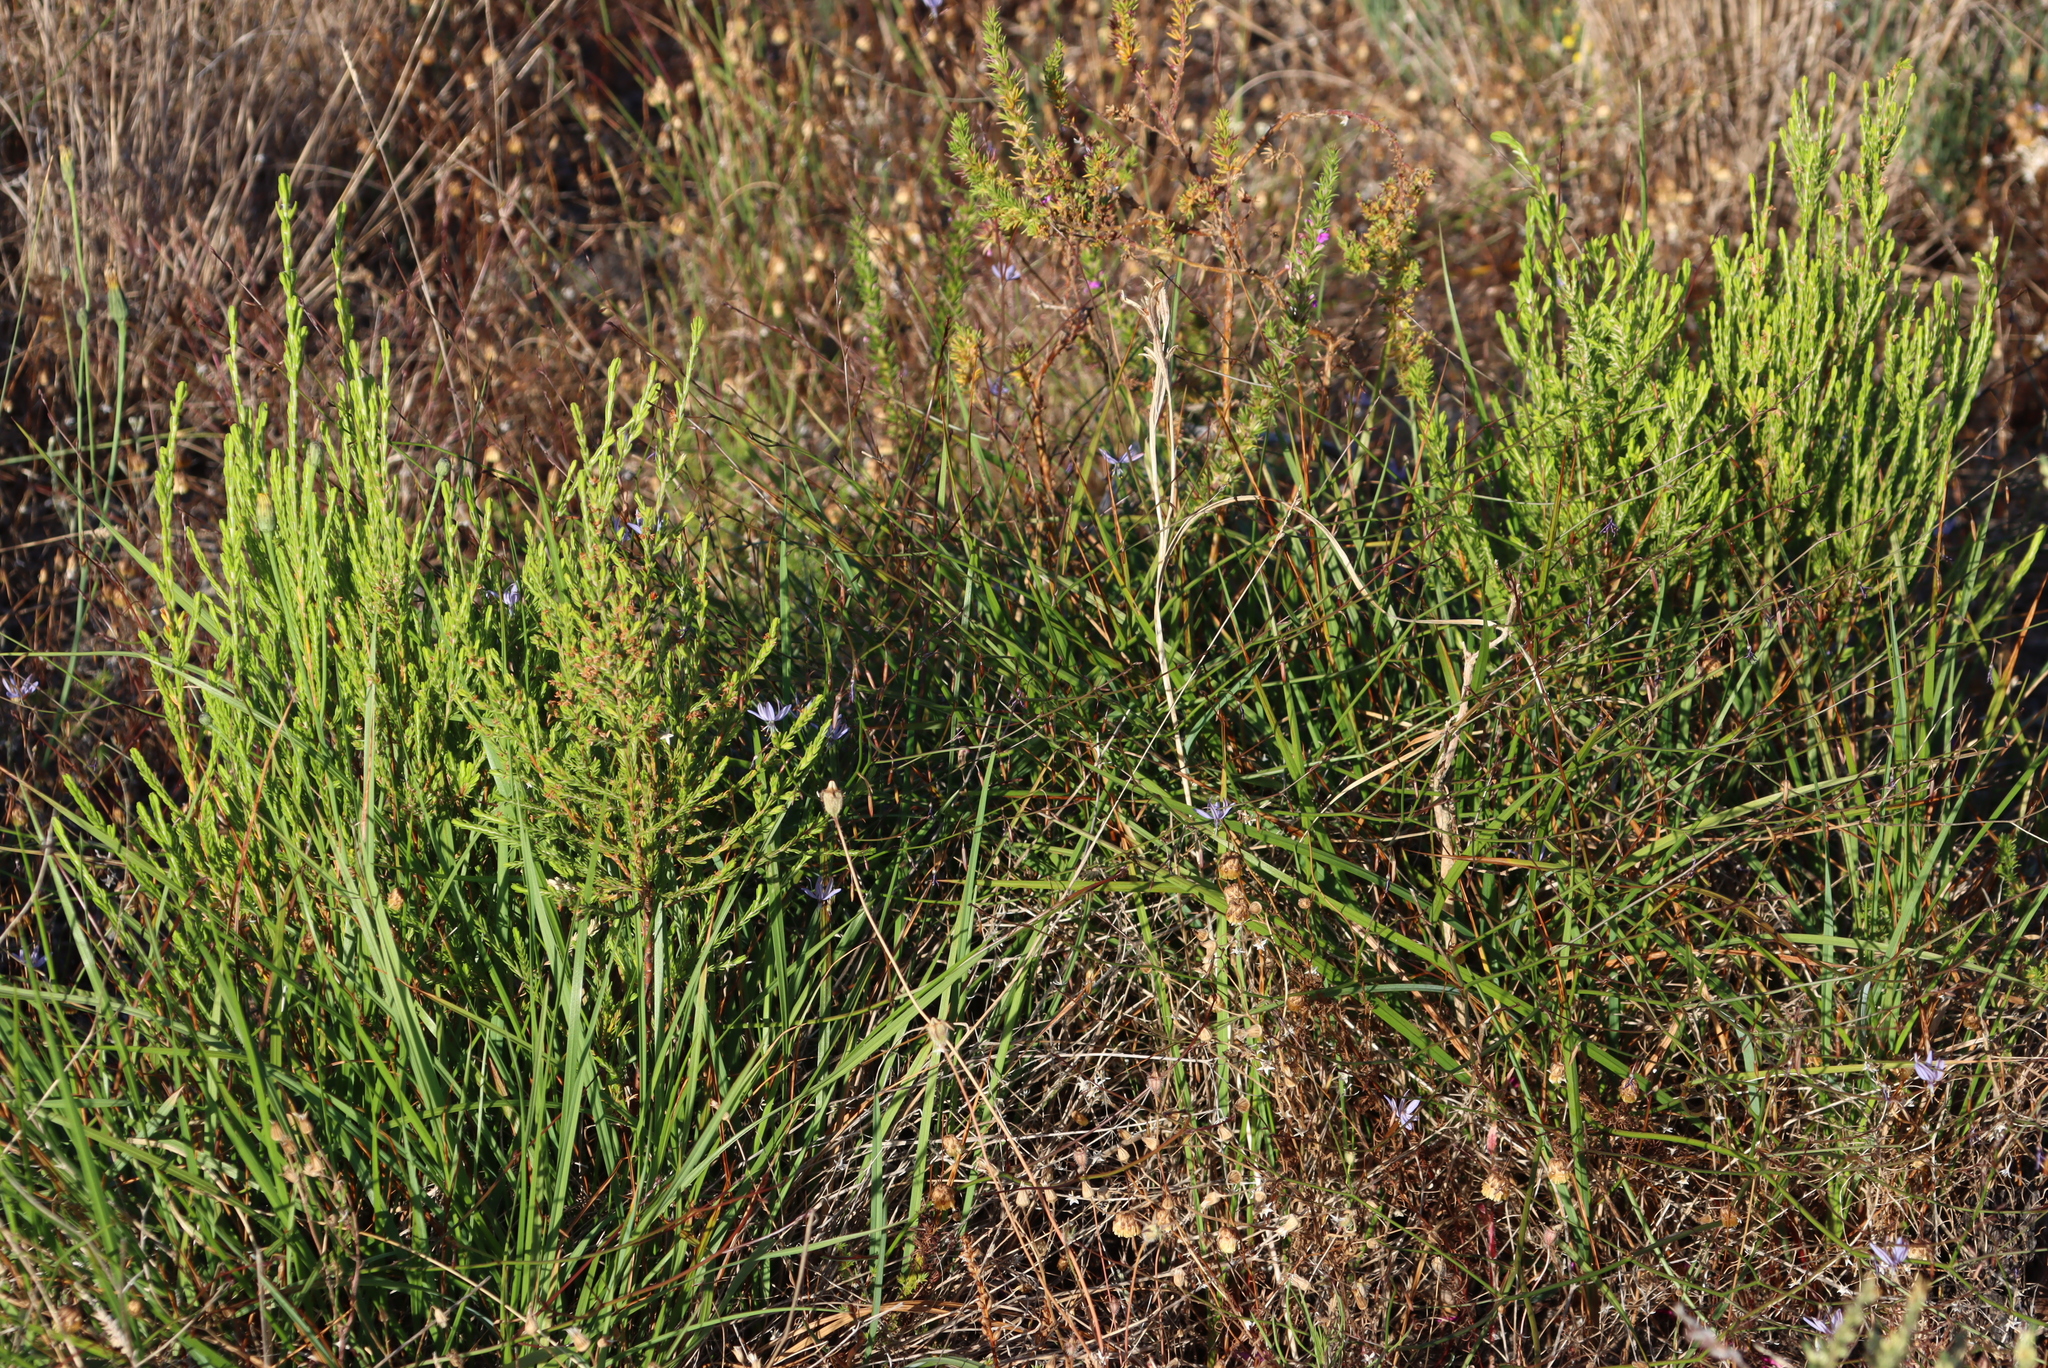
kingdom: Plantae
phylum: Tracheophyta
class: Liliopsida
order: Asparagales
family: Asphodelaceae
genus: Caesia
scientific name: Caesia contorta
